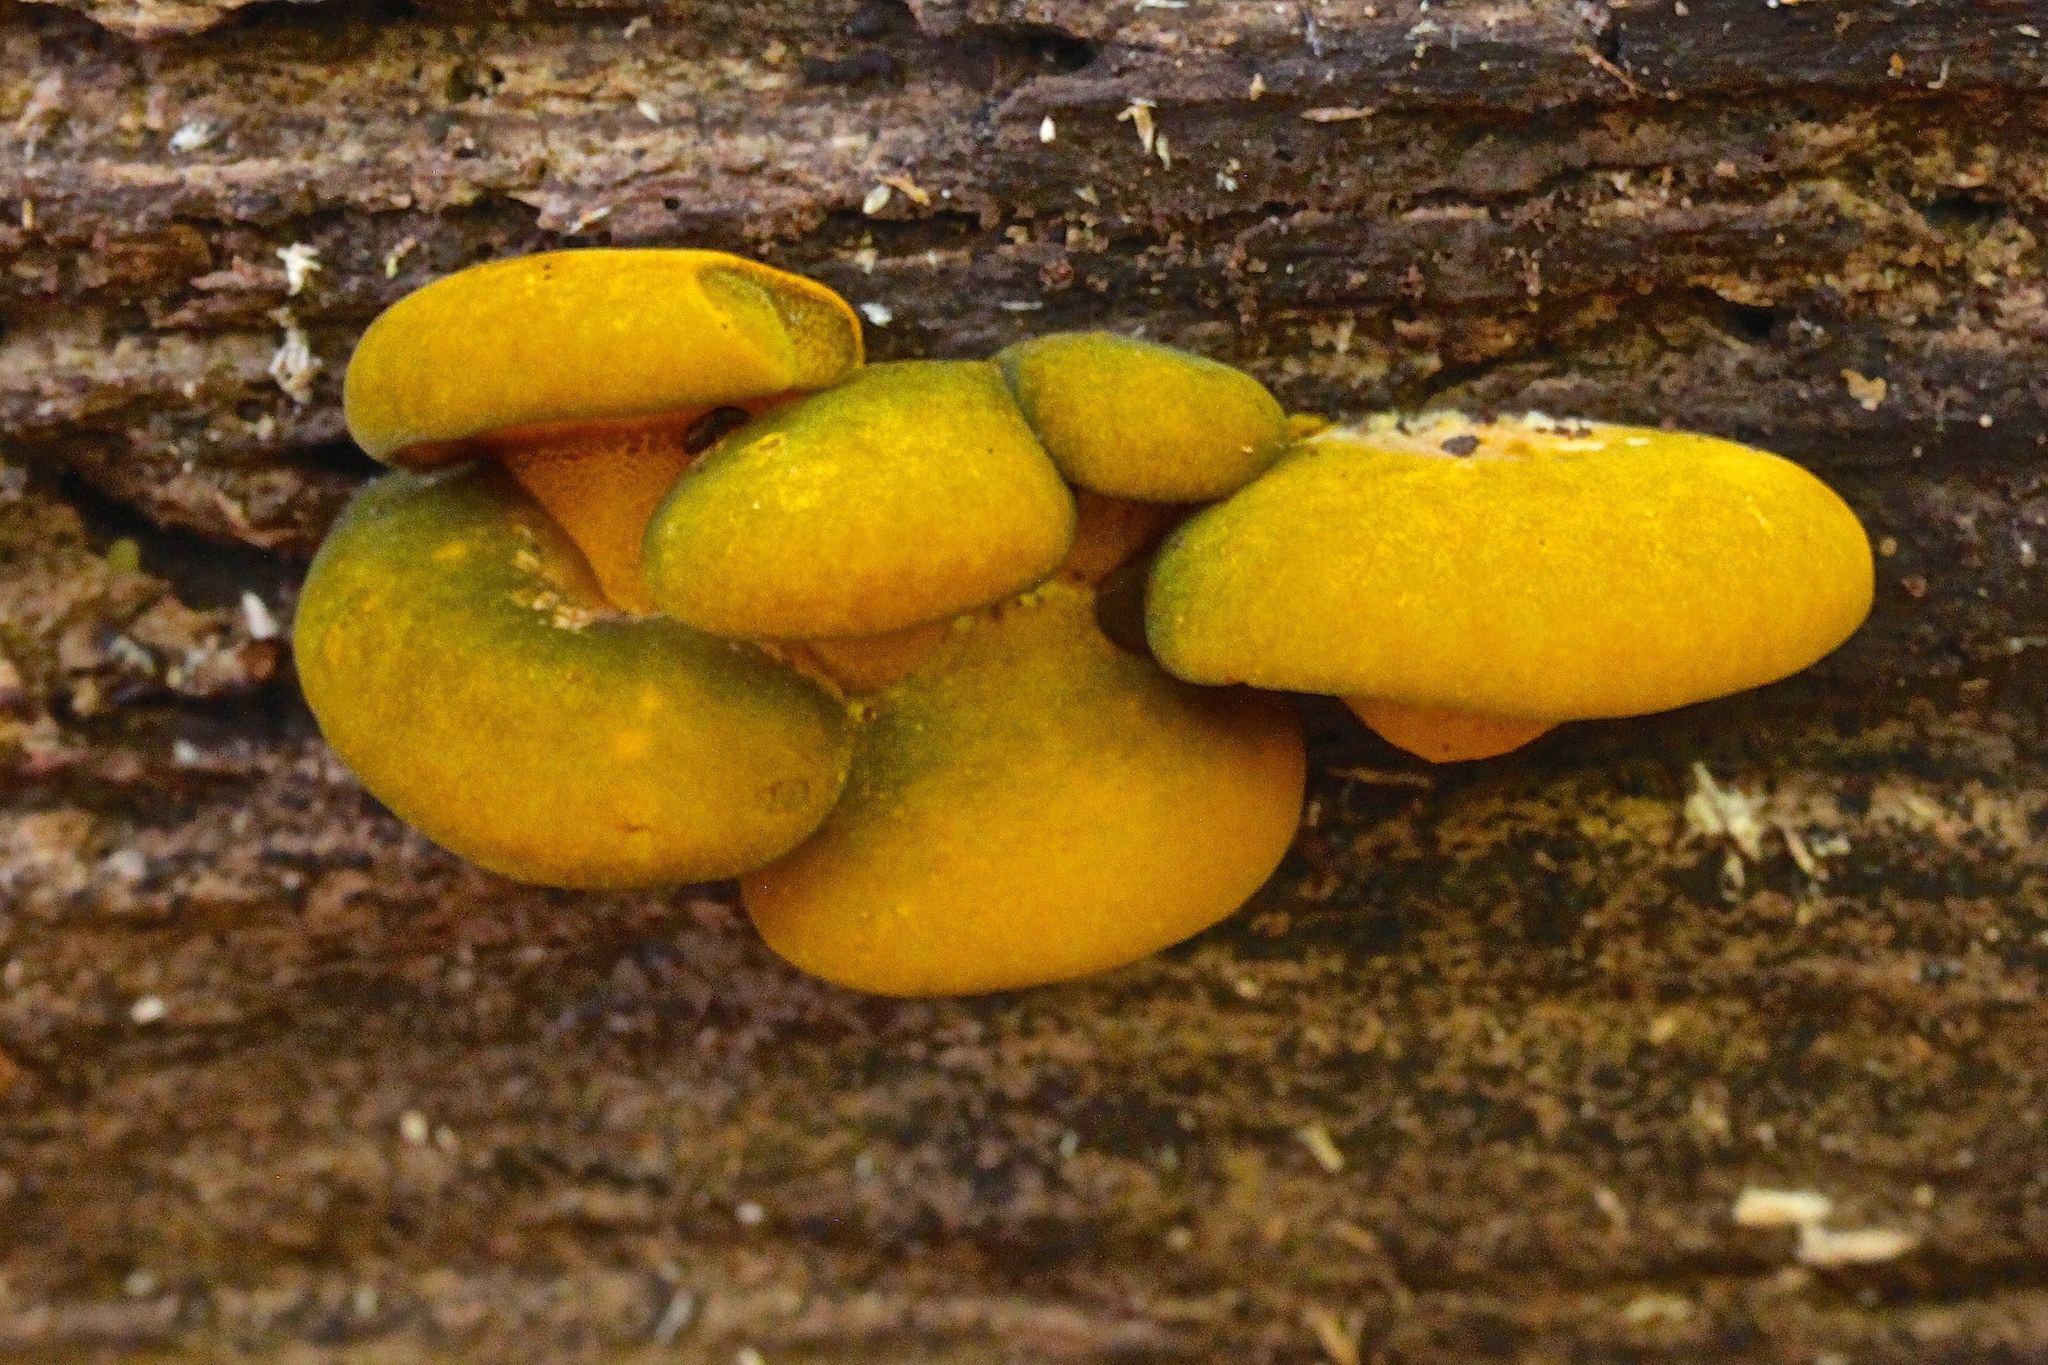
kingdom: Fungi
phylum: Basidiomycota
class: Agaricomycetes
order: Agaricales
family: Sarcomyxaceae
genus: Sarcomyxa
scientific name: Sarcomyxa serotina
